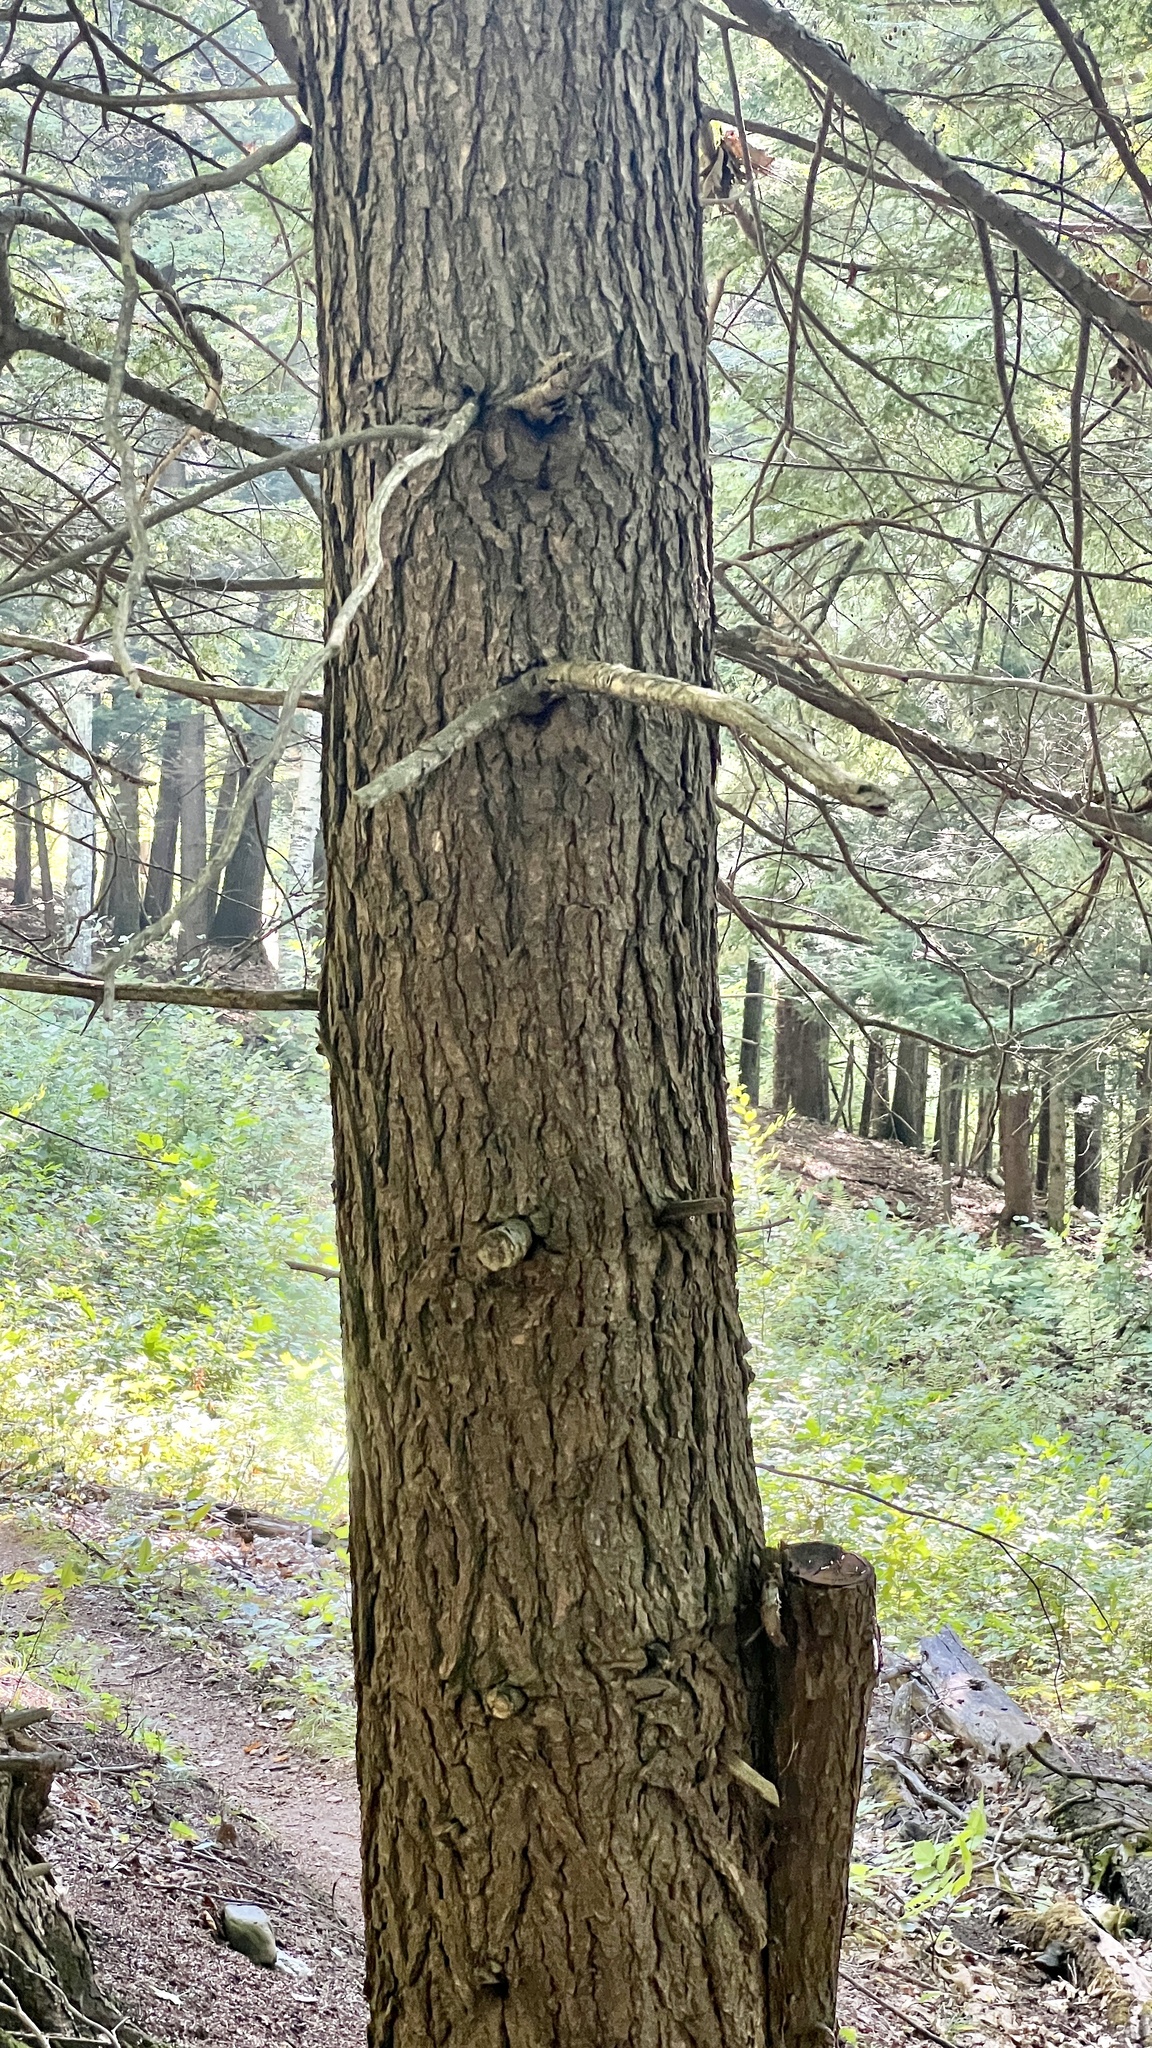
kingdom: Plantae
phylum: Tracheophyta
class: Pinopsida
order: Pinales
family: Pinaceae
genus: Tsuga
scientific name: Tsuga canadensis
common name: Eastern hemlock
